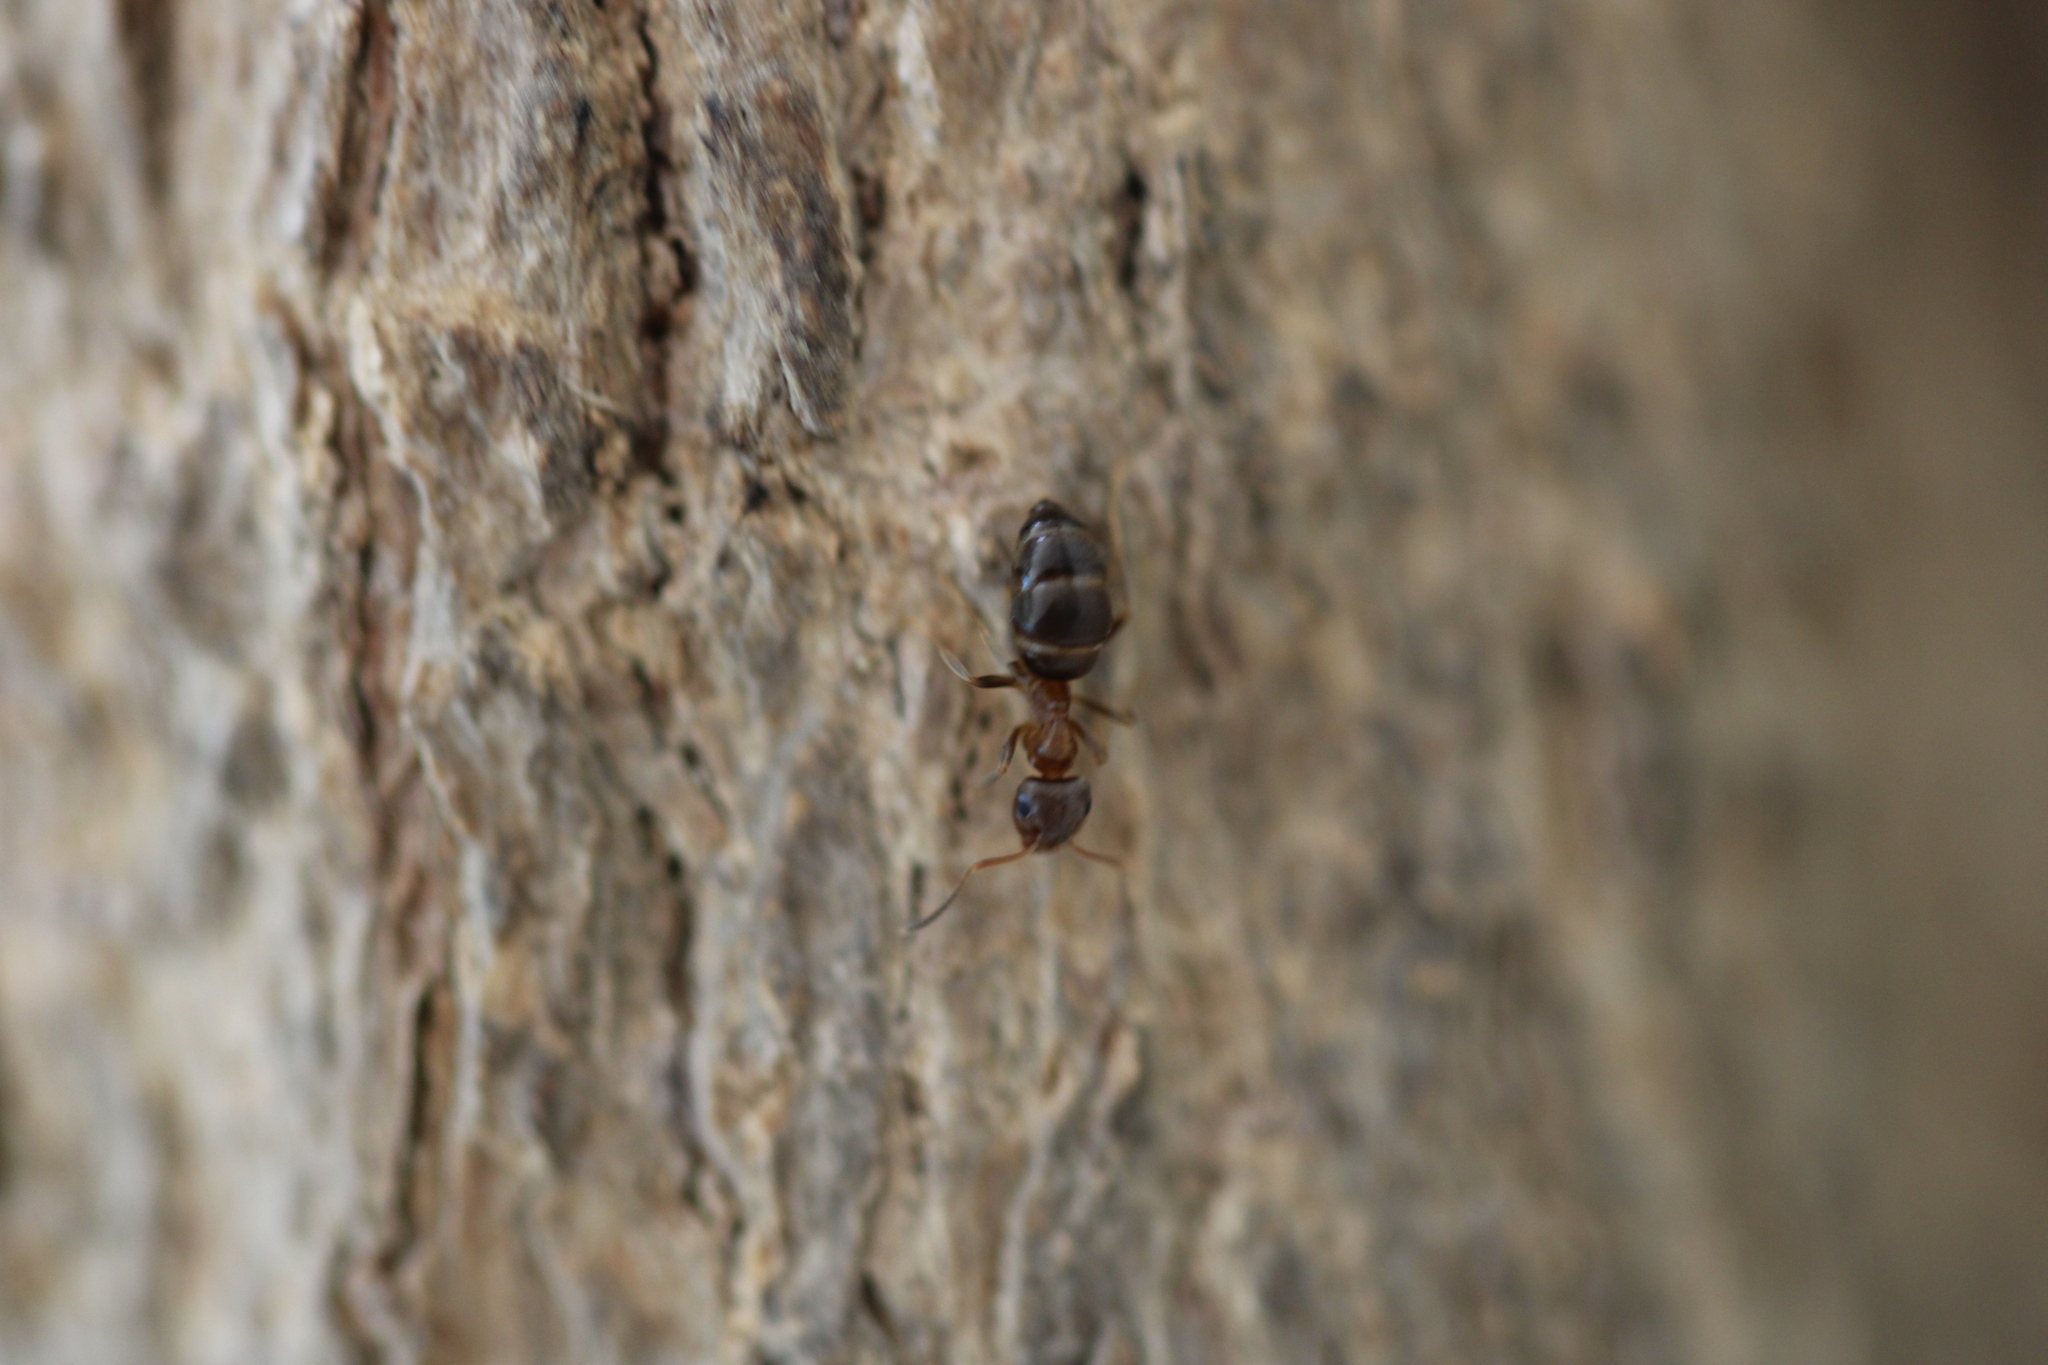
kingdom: Animalia
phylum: Arthropoda
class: Insecta
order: Hymenoptera
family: Formicidae
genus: Lasius
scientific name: Lasius brunneus
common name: Brown ant
